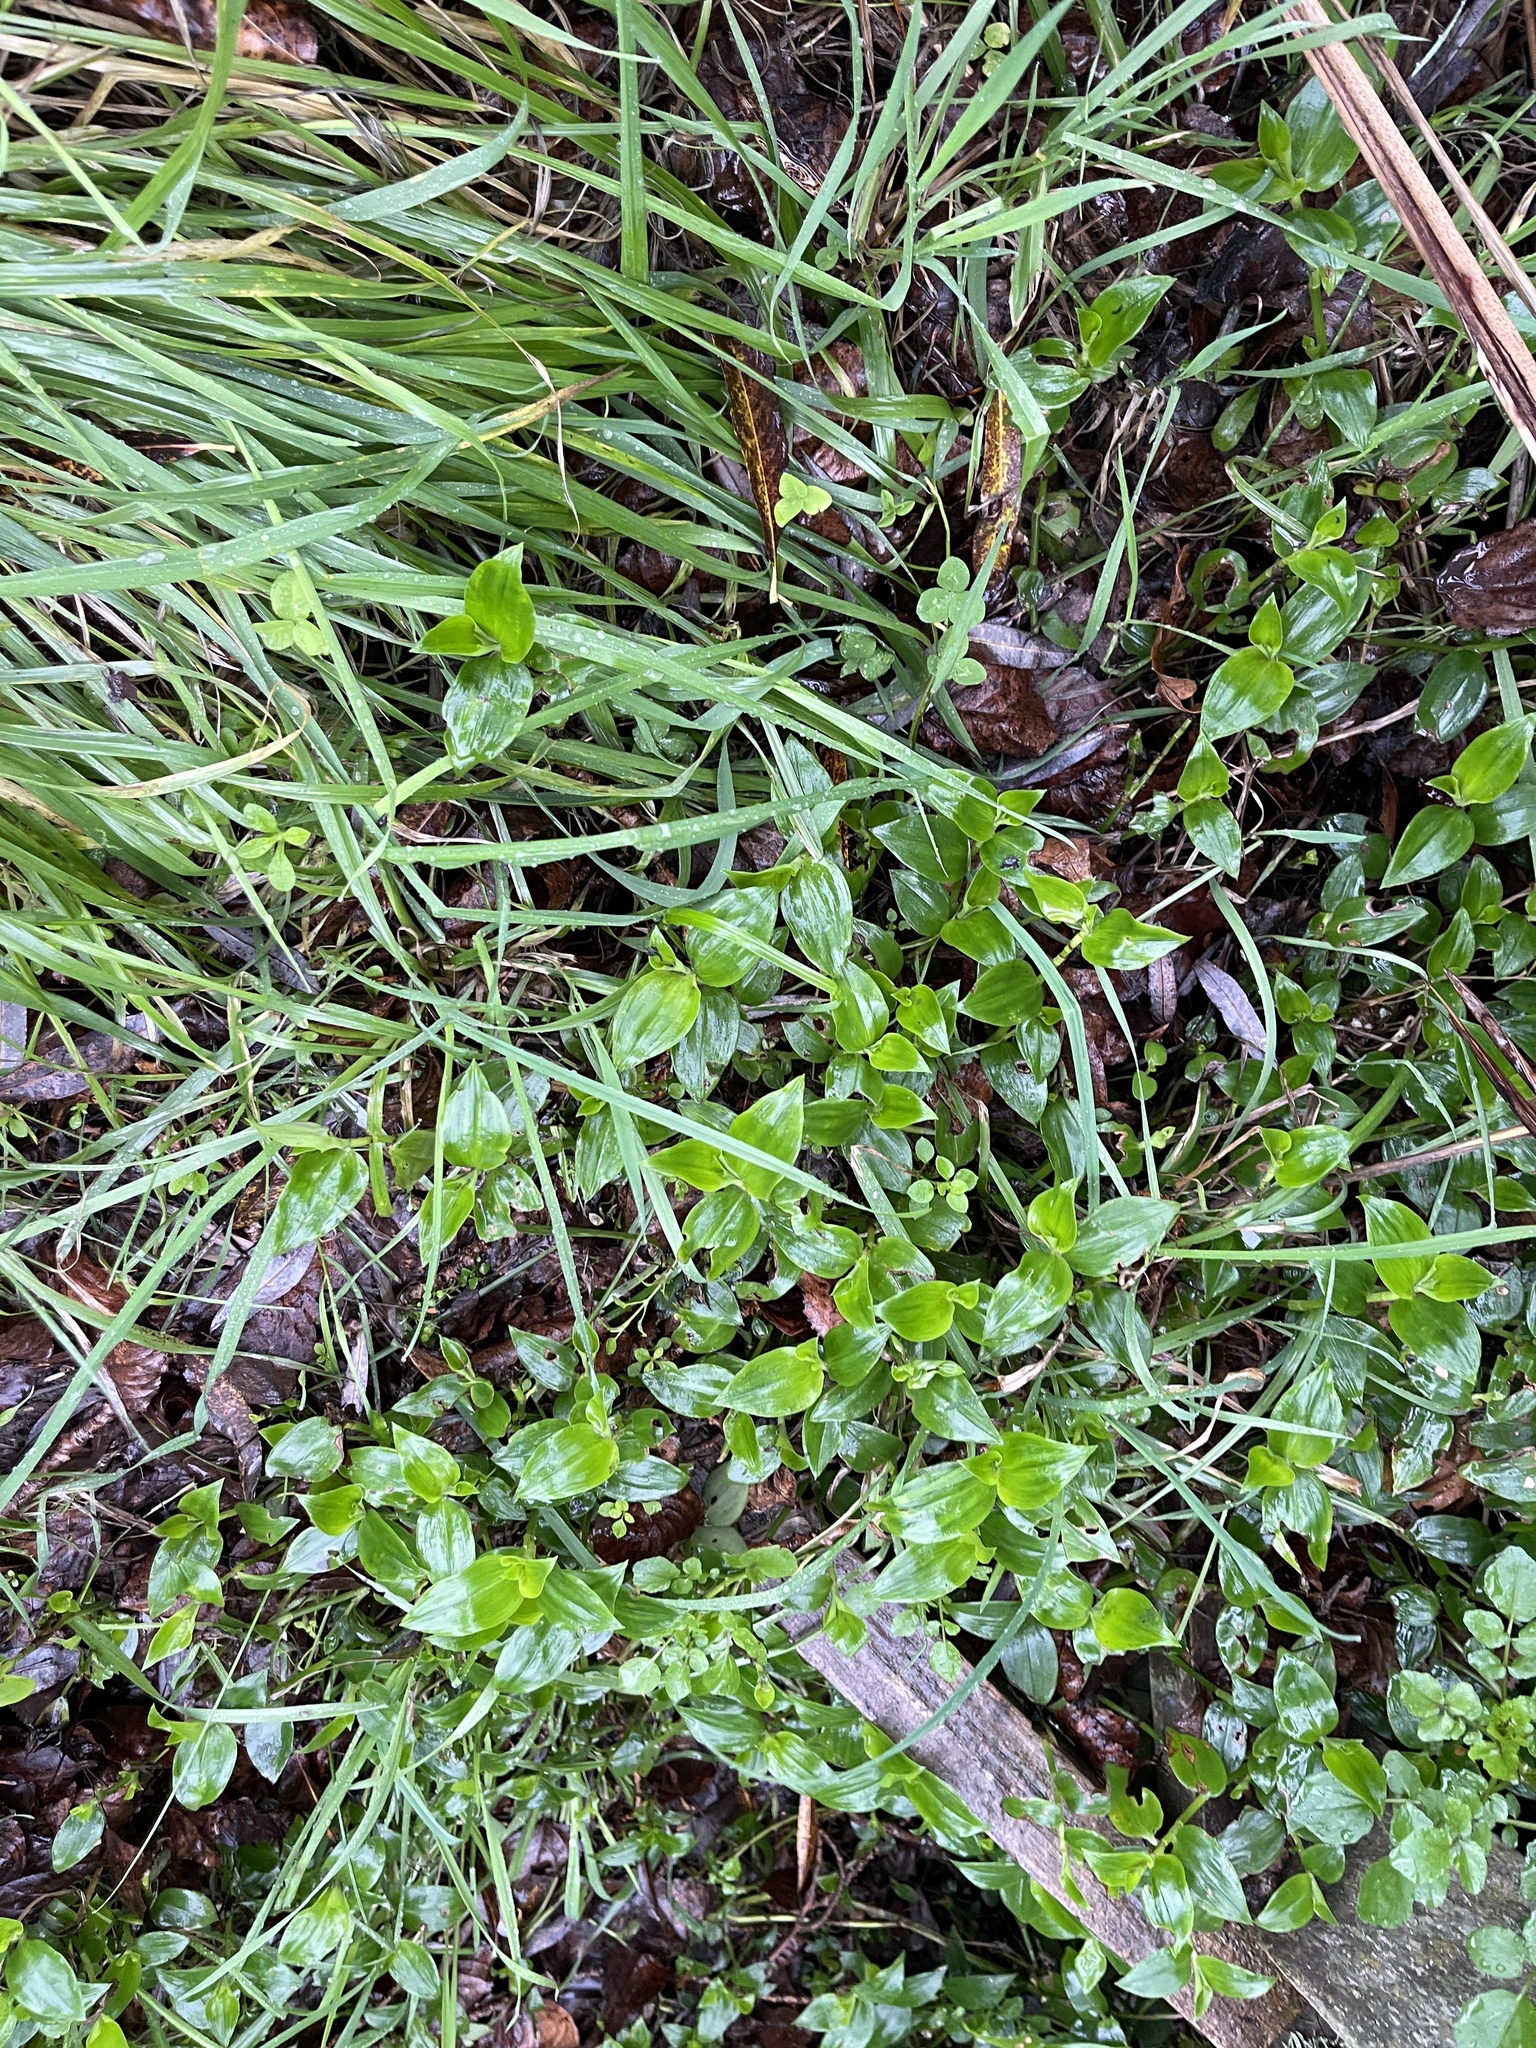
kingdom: Plantae
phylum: Tracheophyta
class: Liliopsida
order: Commelinales
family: Commelinaceae
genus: Tradescantia
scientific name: Tradescantia fluminensis
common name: Wandering-jew
